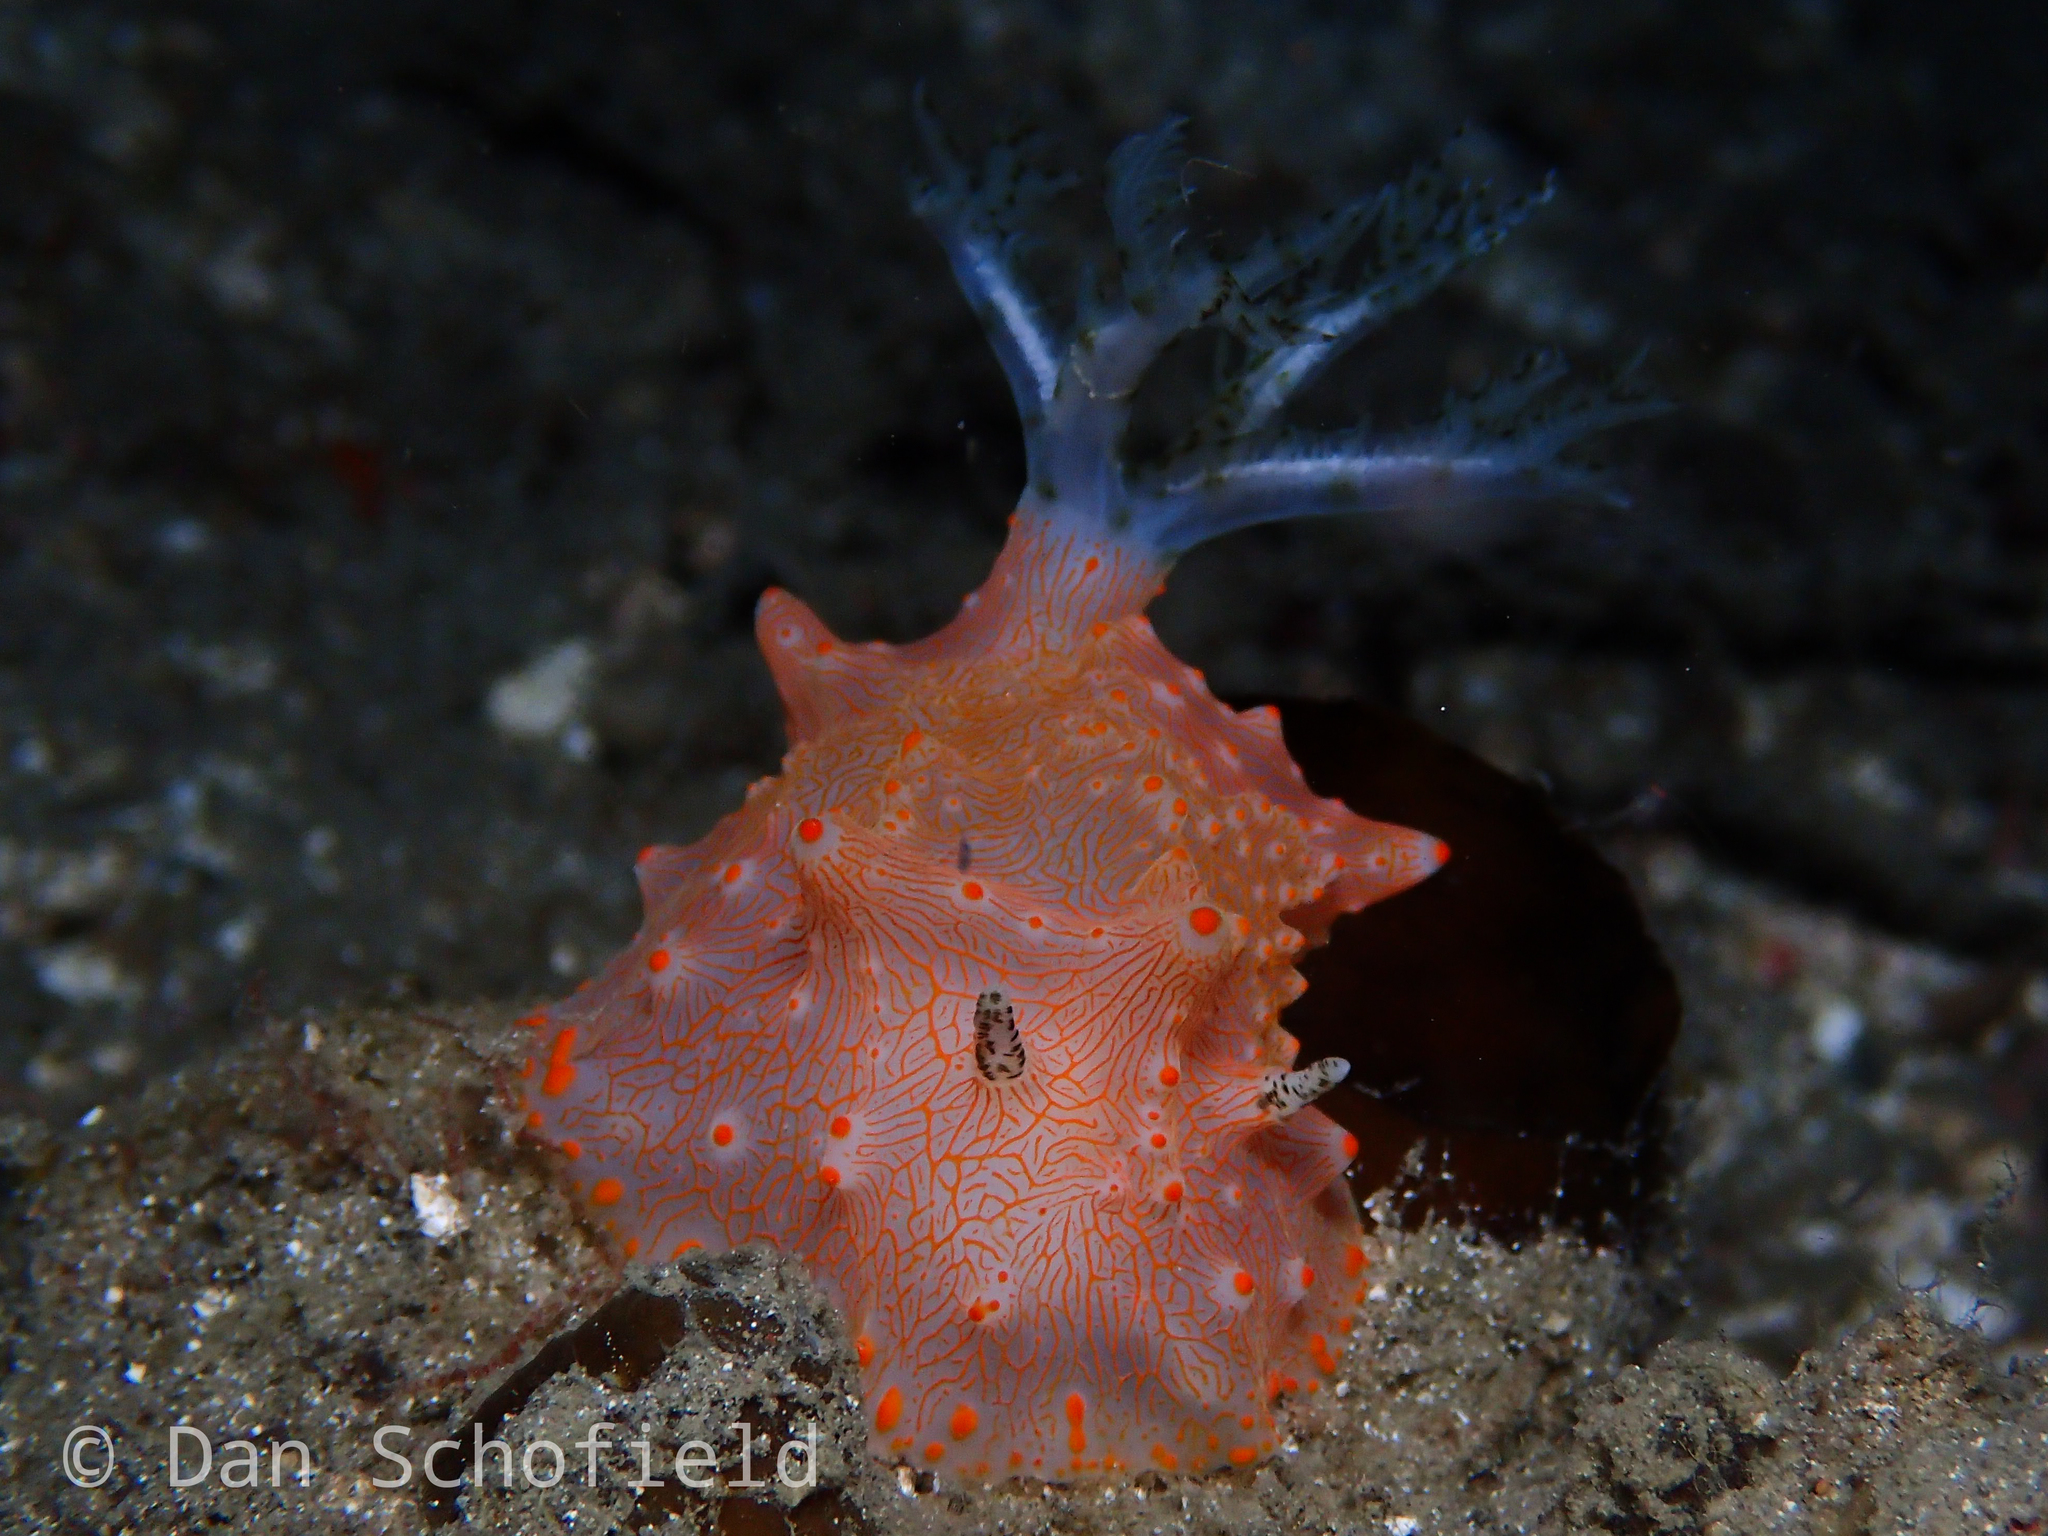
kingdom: Animalia
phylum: Mollusca
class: Gastropoda
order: Nudibranchia
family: Discodorididae
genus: Halgerda
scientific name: Halgerda batangas
